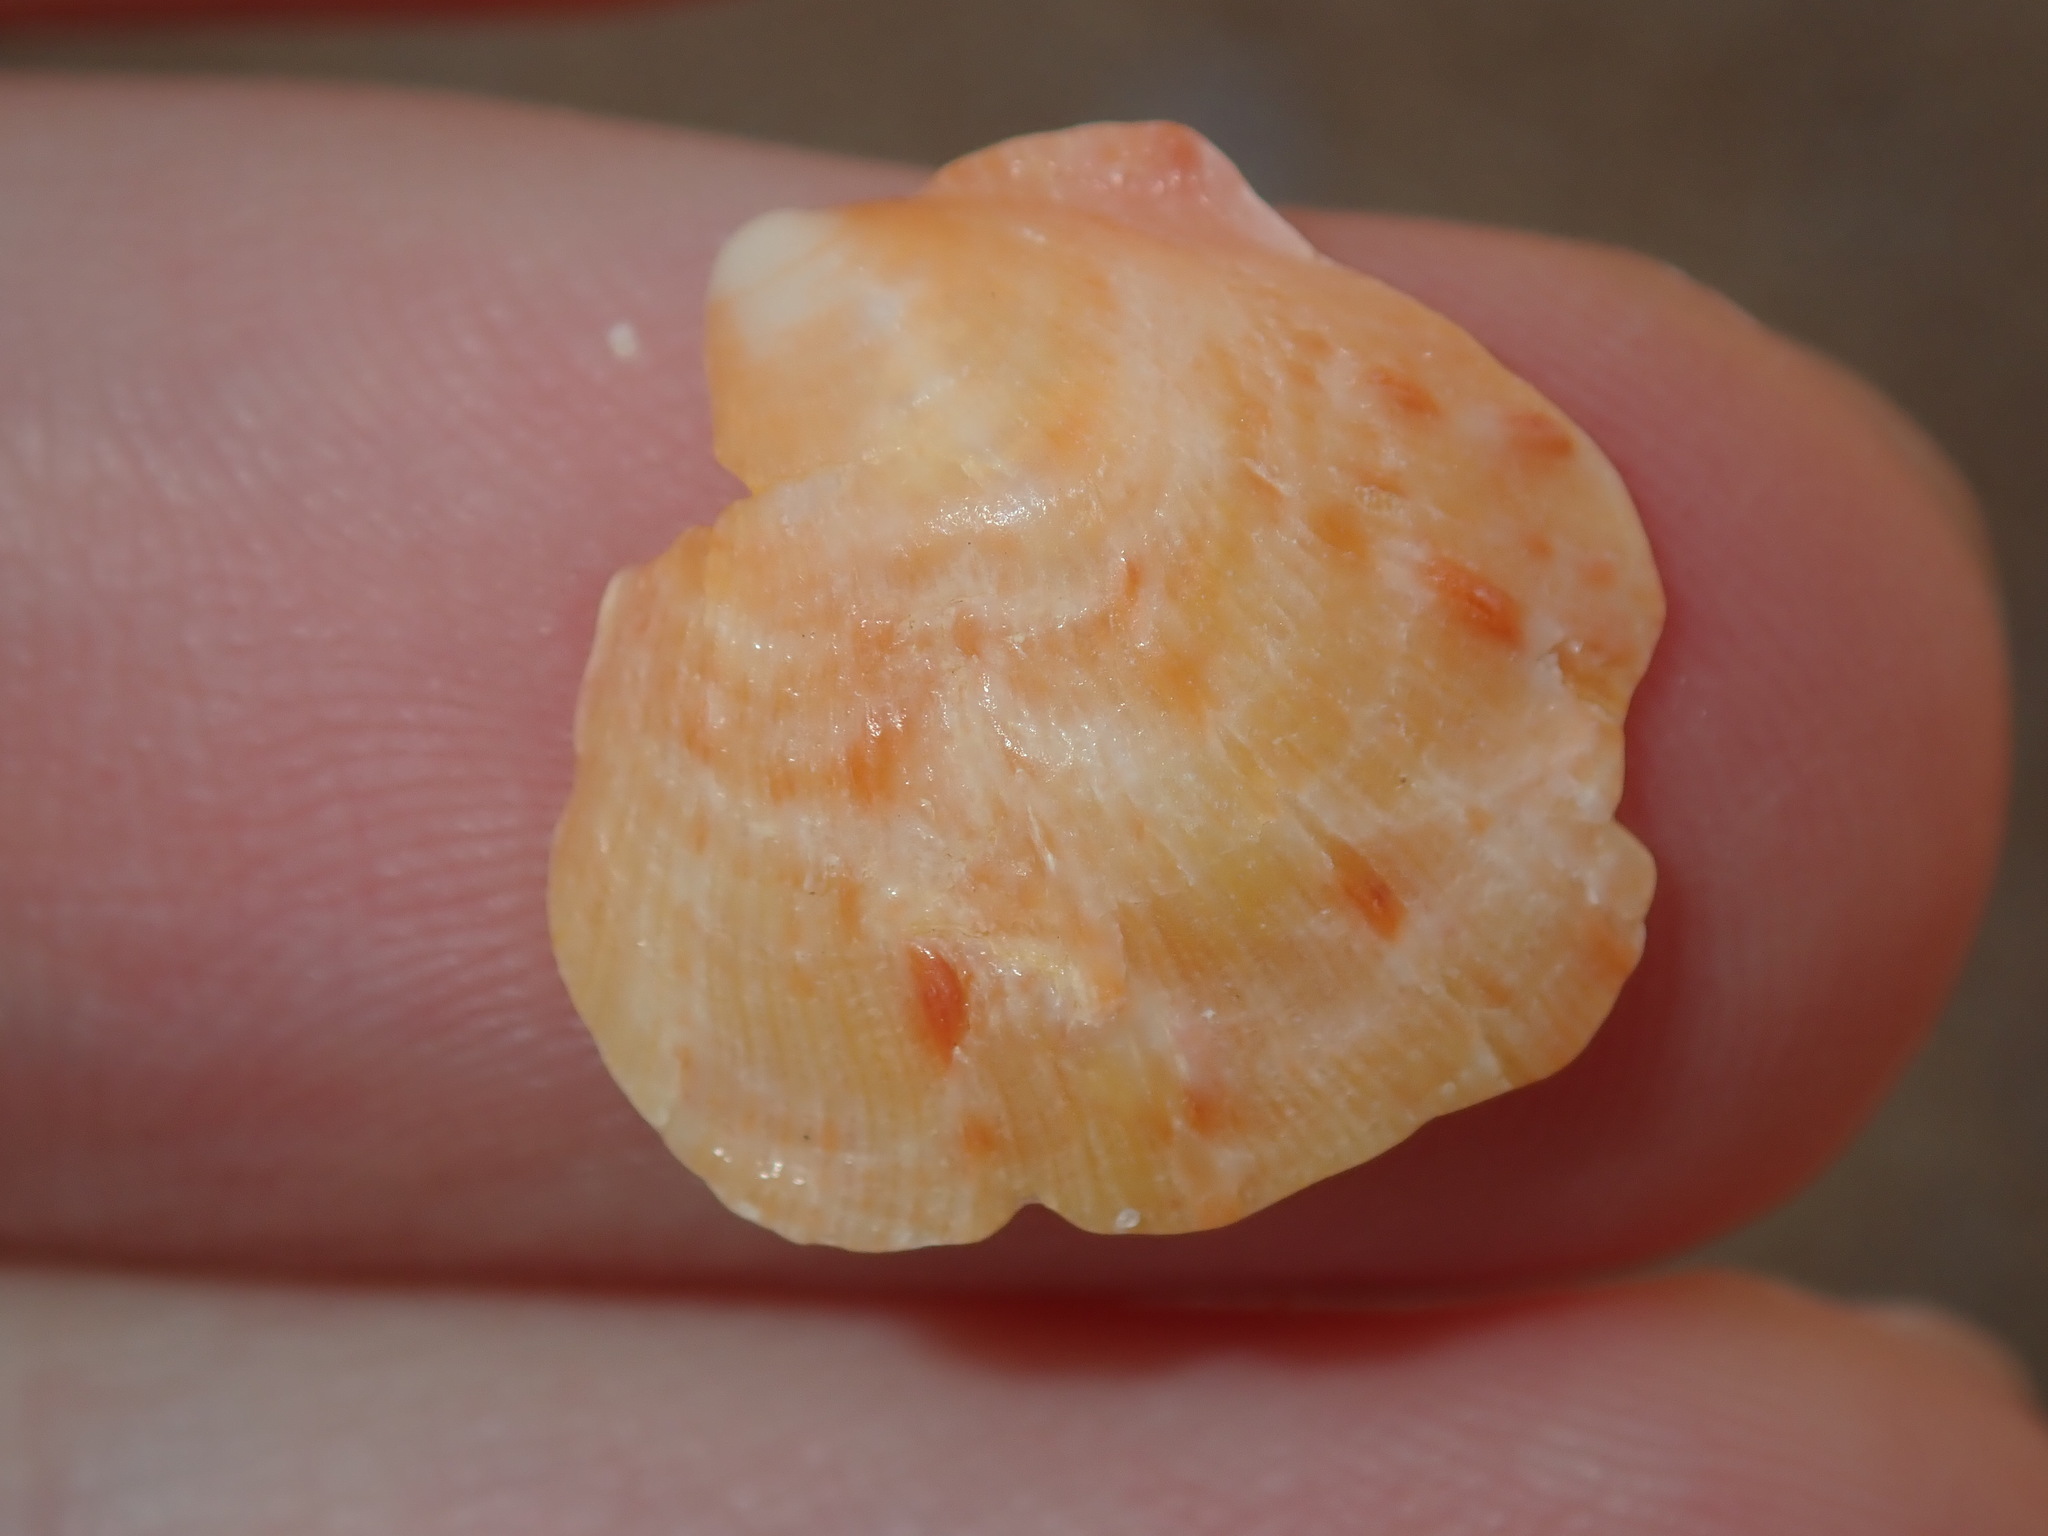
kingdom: Animalia
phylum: Mollusca
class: Bivalvia
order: Pectinida
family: Spondylidae
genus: Spondylus
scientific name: Spondylus tenellus
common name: Scarlet thorny oyster
